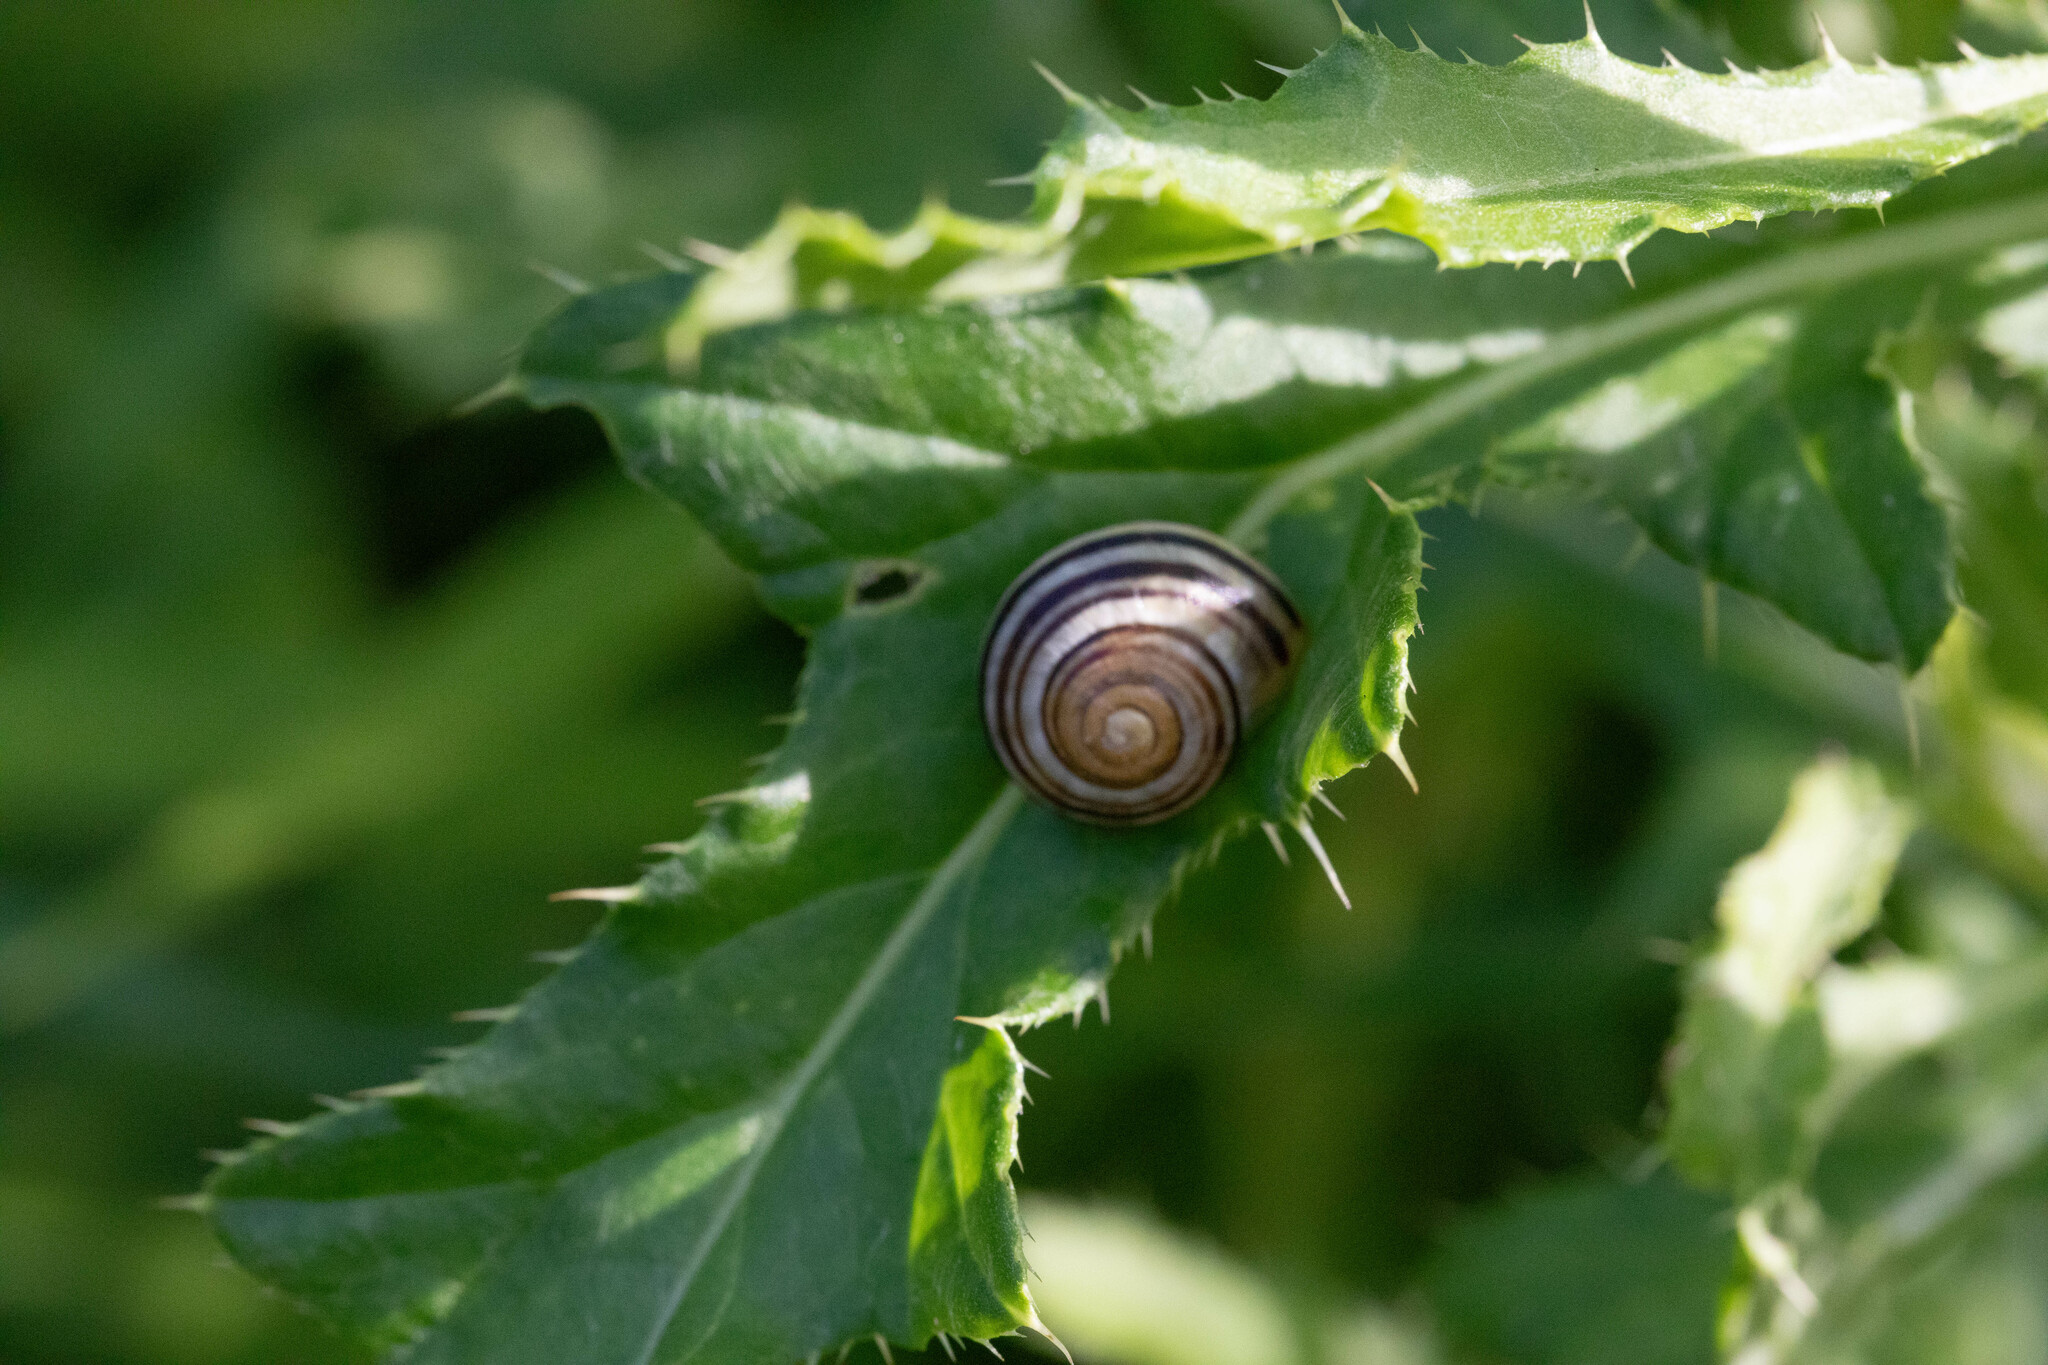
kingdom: Animalia
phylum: Mollusca
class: Gastropoda
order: Stylommatophora
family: Helicidae
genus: Cepaea
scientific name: Cepaea nemoralis
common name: Grovesnail
